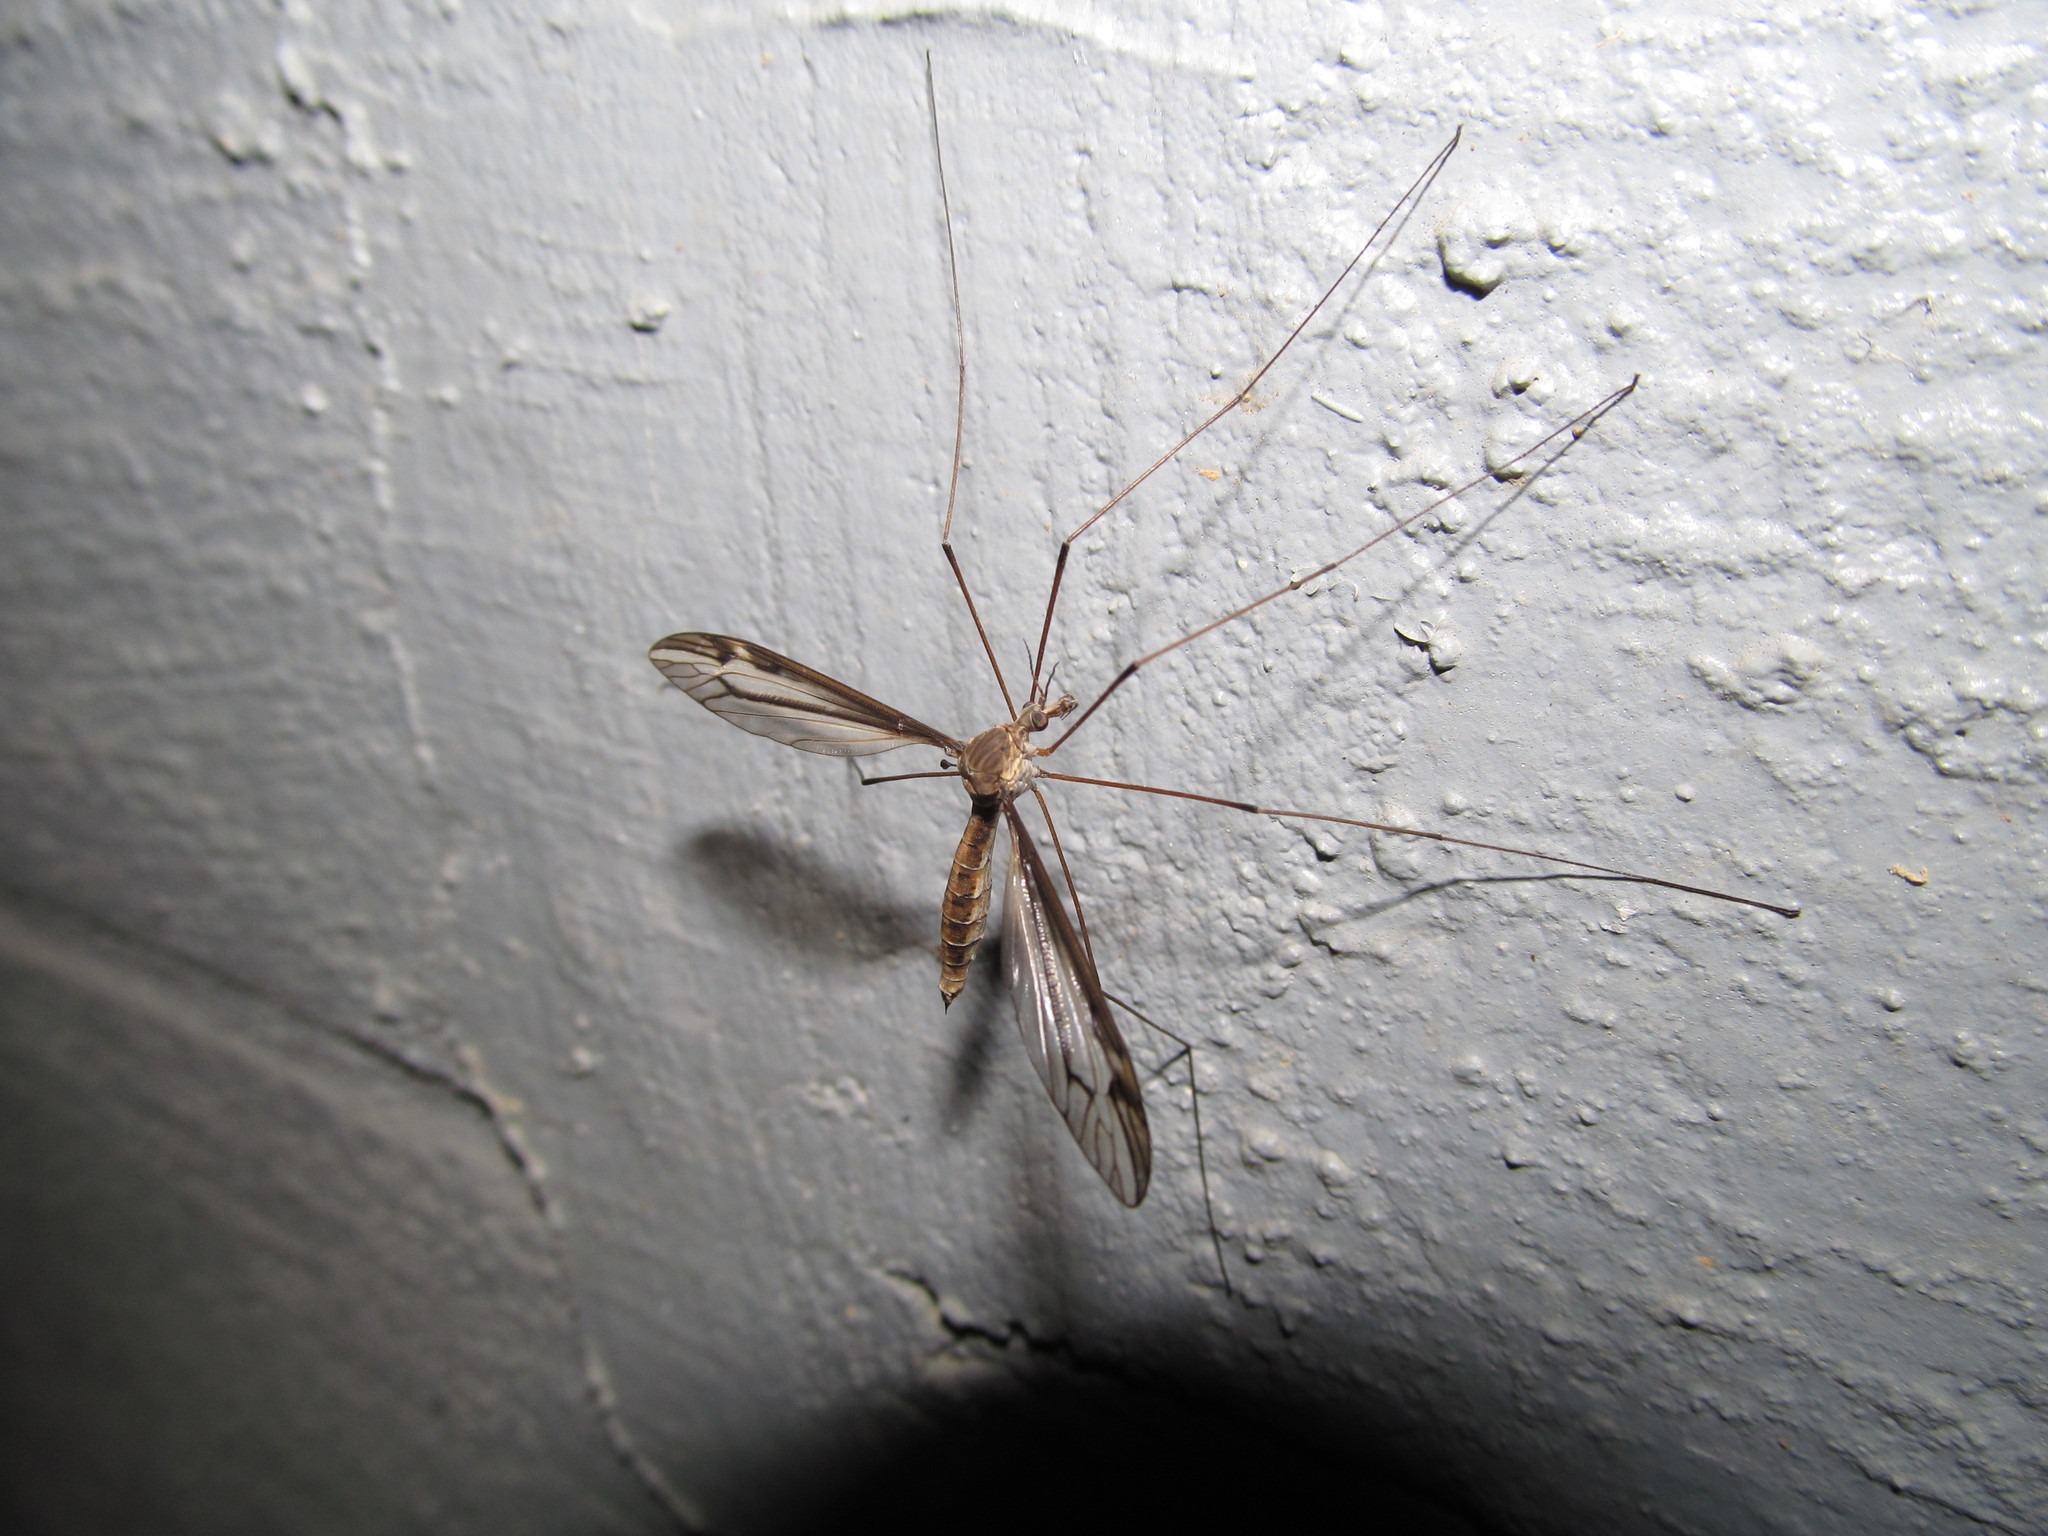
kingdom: Animalia
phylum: Arthropoda
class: Insecta
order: Diptera
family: Tipulidae
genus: Tipula
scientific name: Tipula furca
